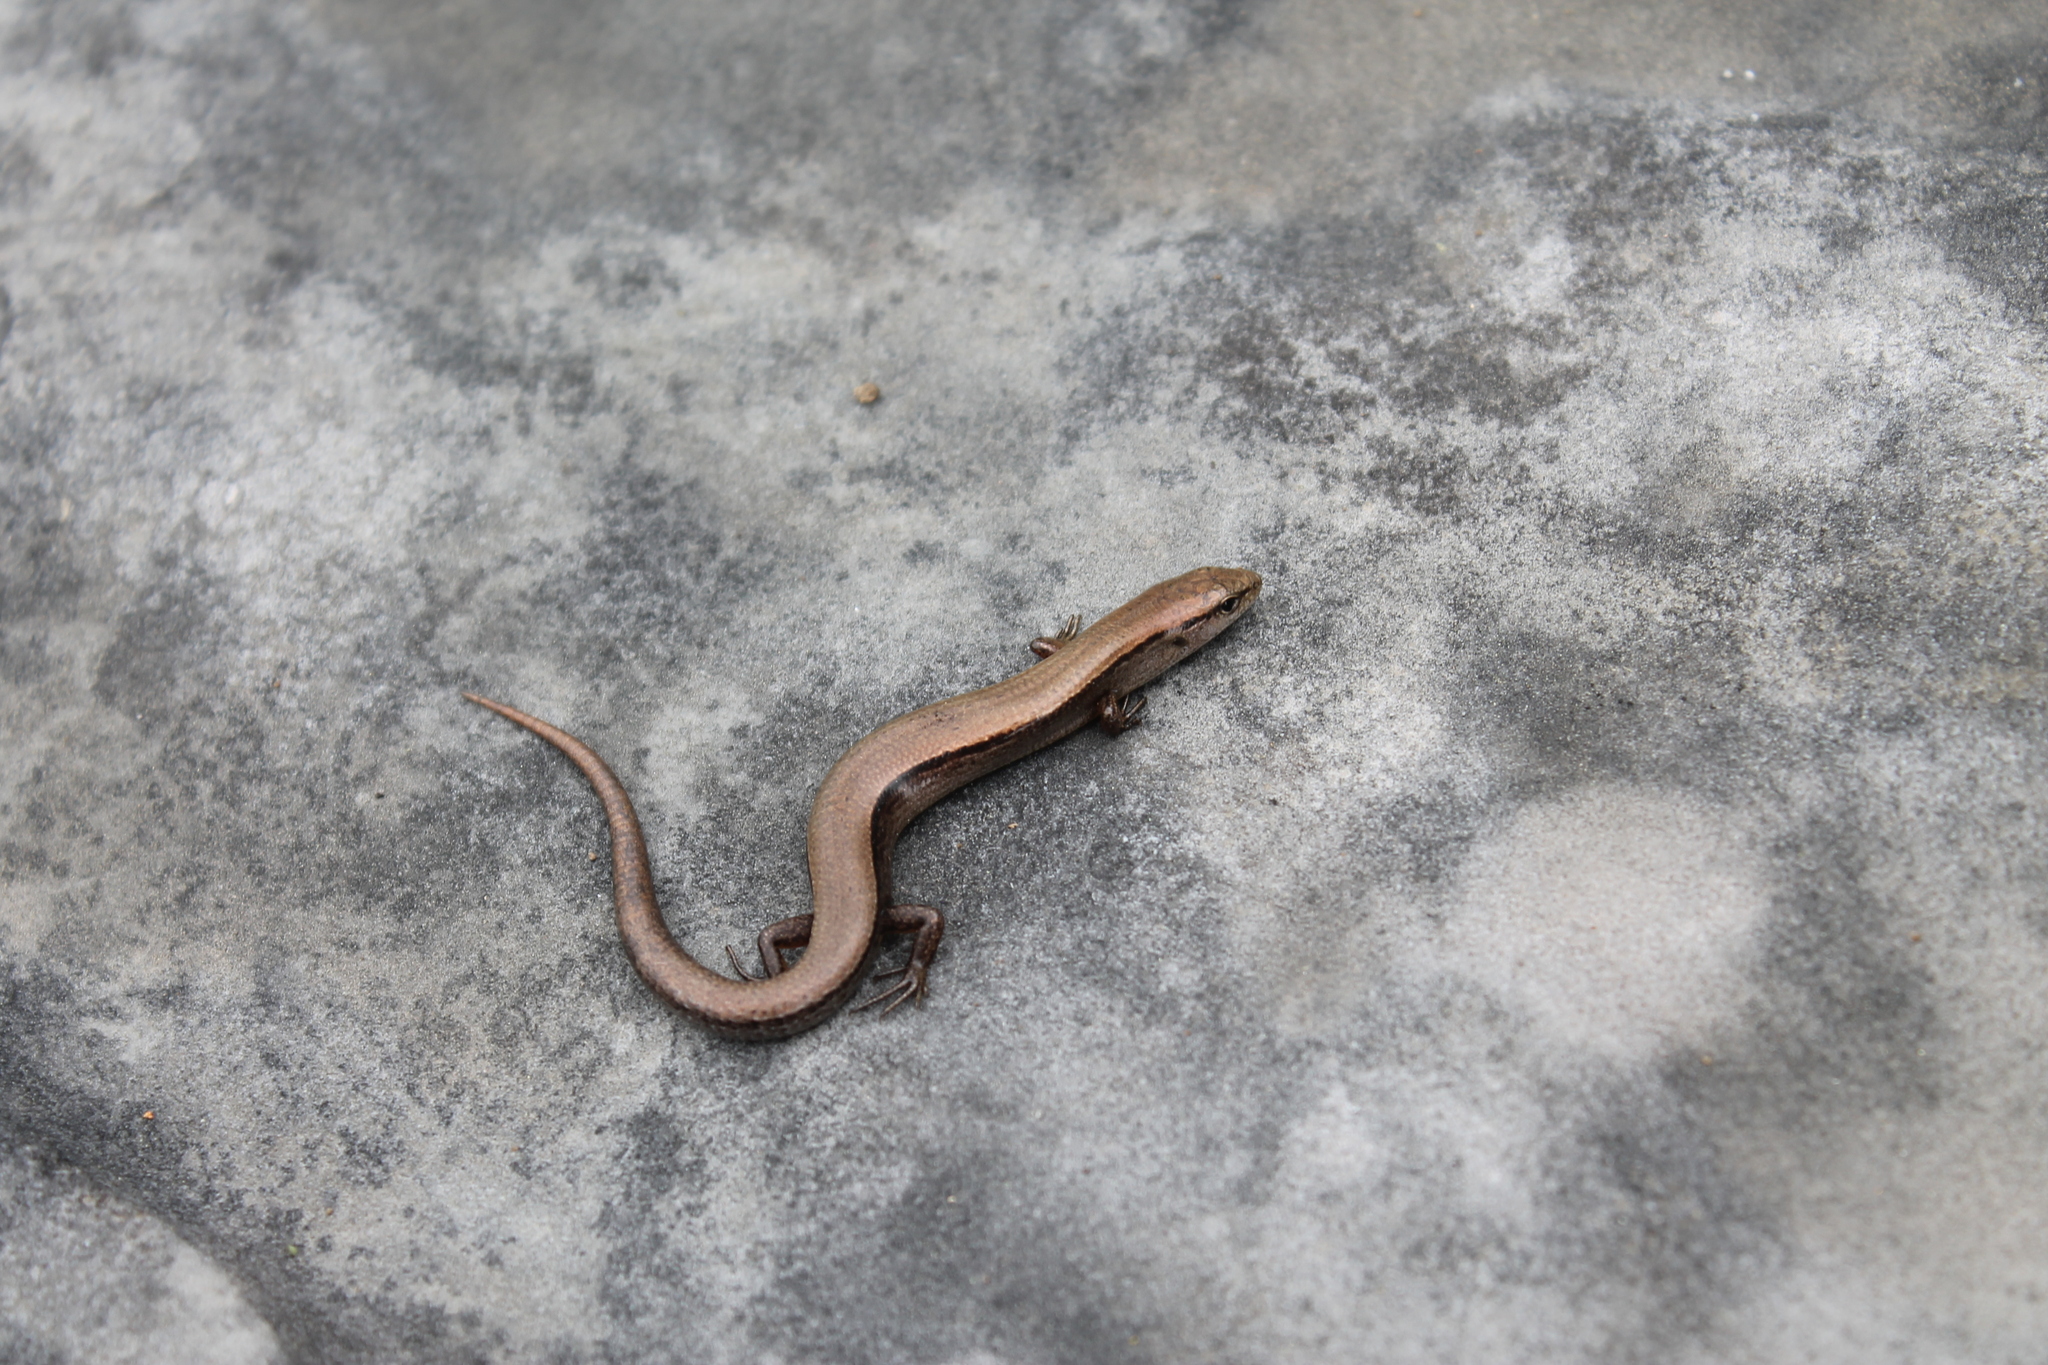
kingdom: Animalia
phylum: Chordata
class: Squamata
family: Scincidae
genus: Scincella
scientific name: Scincella lateralis
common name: Ground skink
